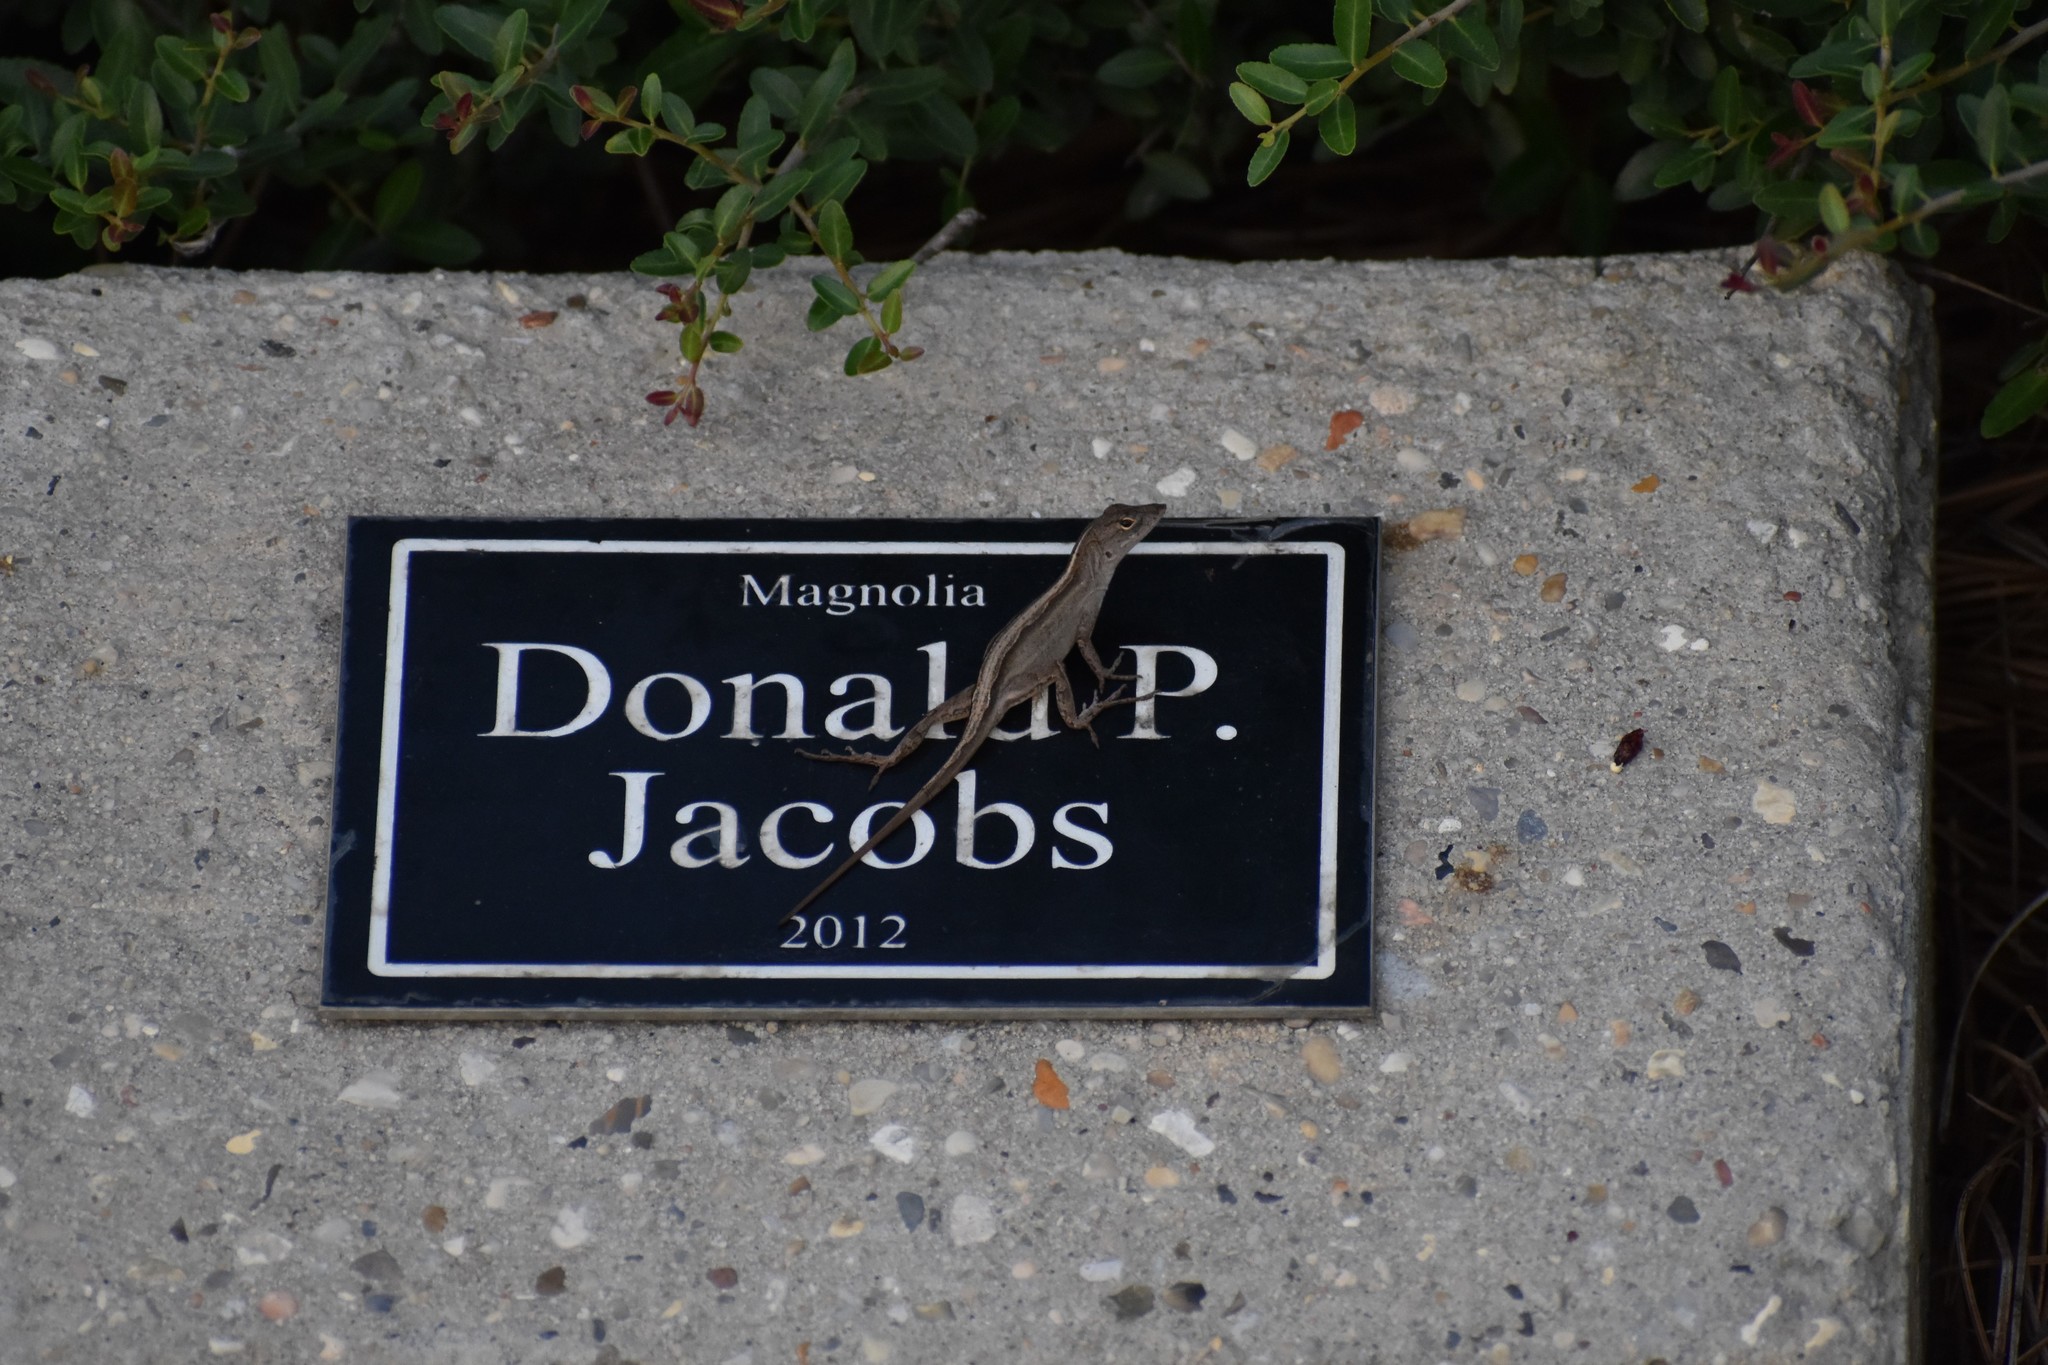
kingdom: Animalia
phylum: Chordata
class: Squamata
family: Dactyloidae
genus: Anolis
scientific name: Anolis sagrei
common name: Brown anole
